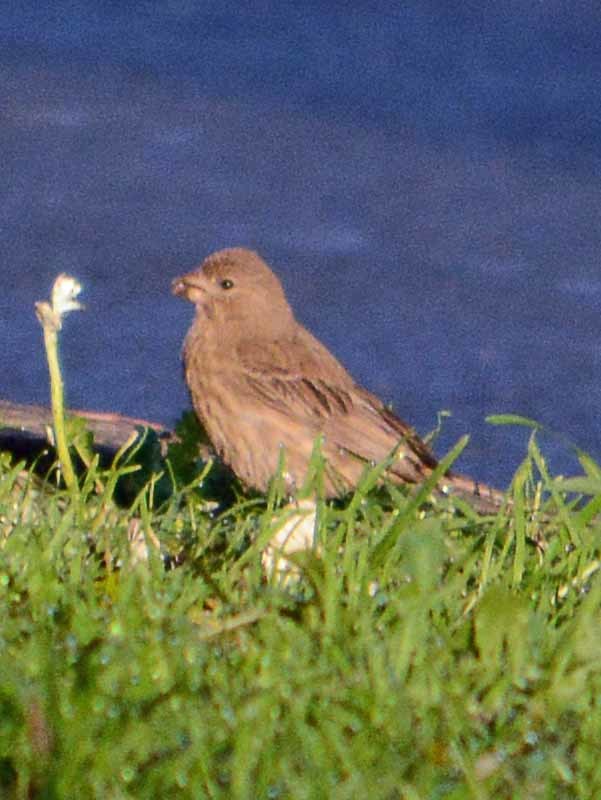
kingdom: Animalia
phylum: Chordata
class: Aves
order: Passeriformes
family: Fringillidae
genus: Haemorhous
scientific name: Haemorhous mexicanus
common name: House finch
